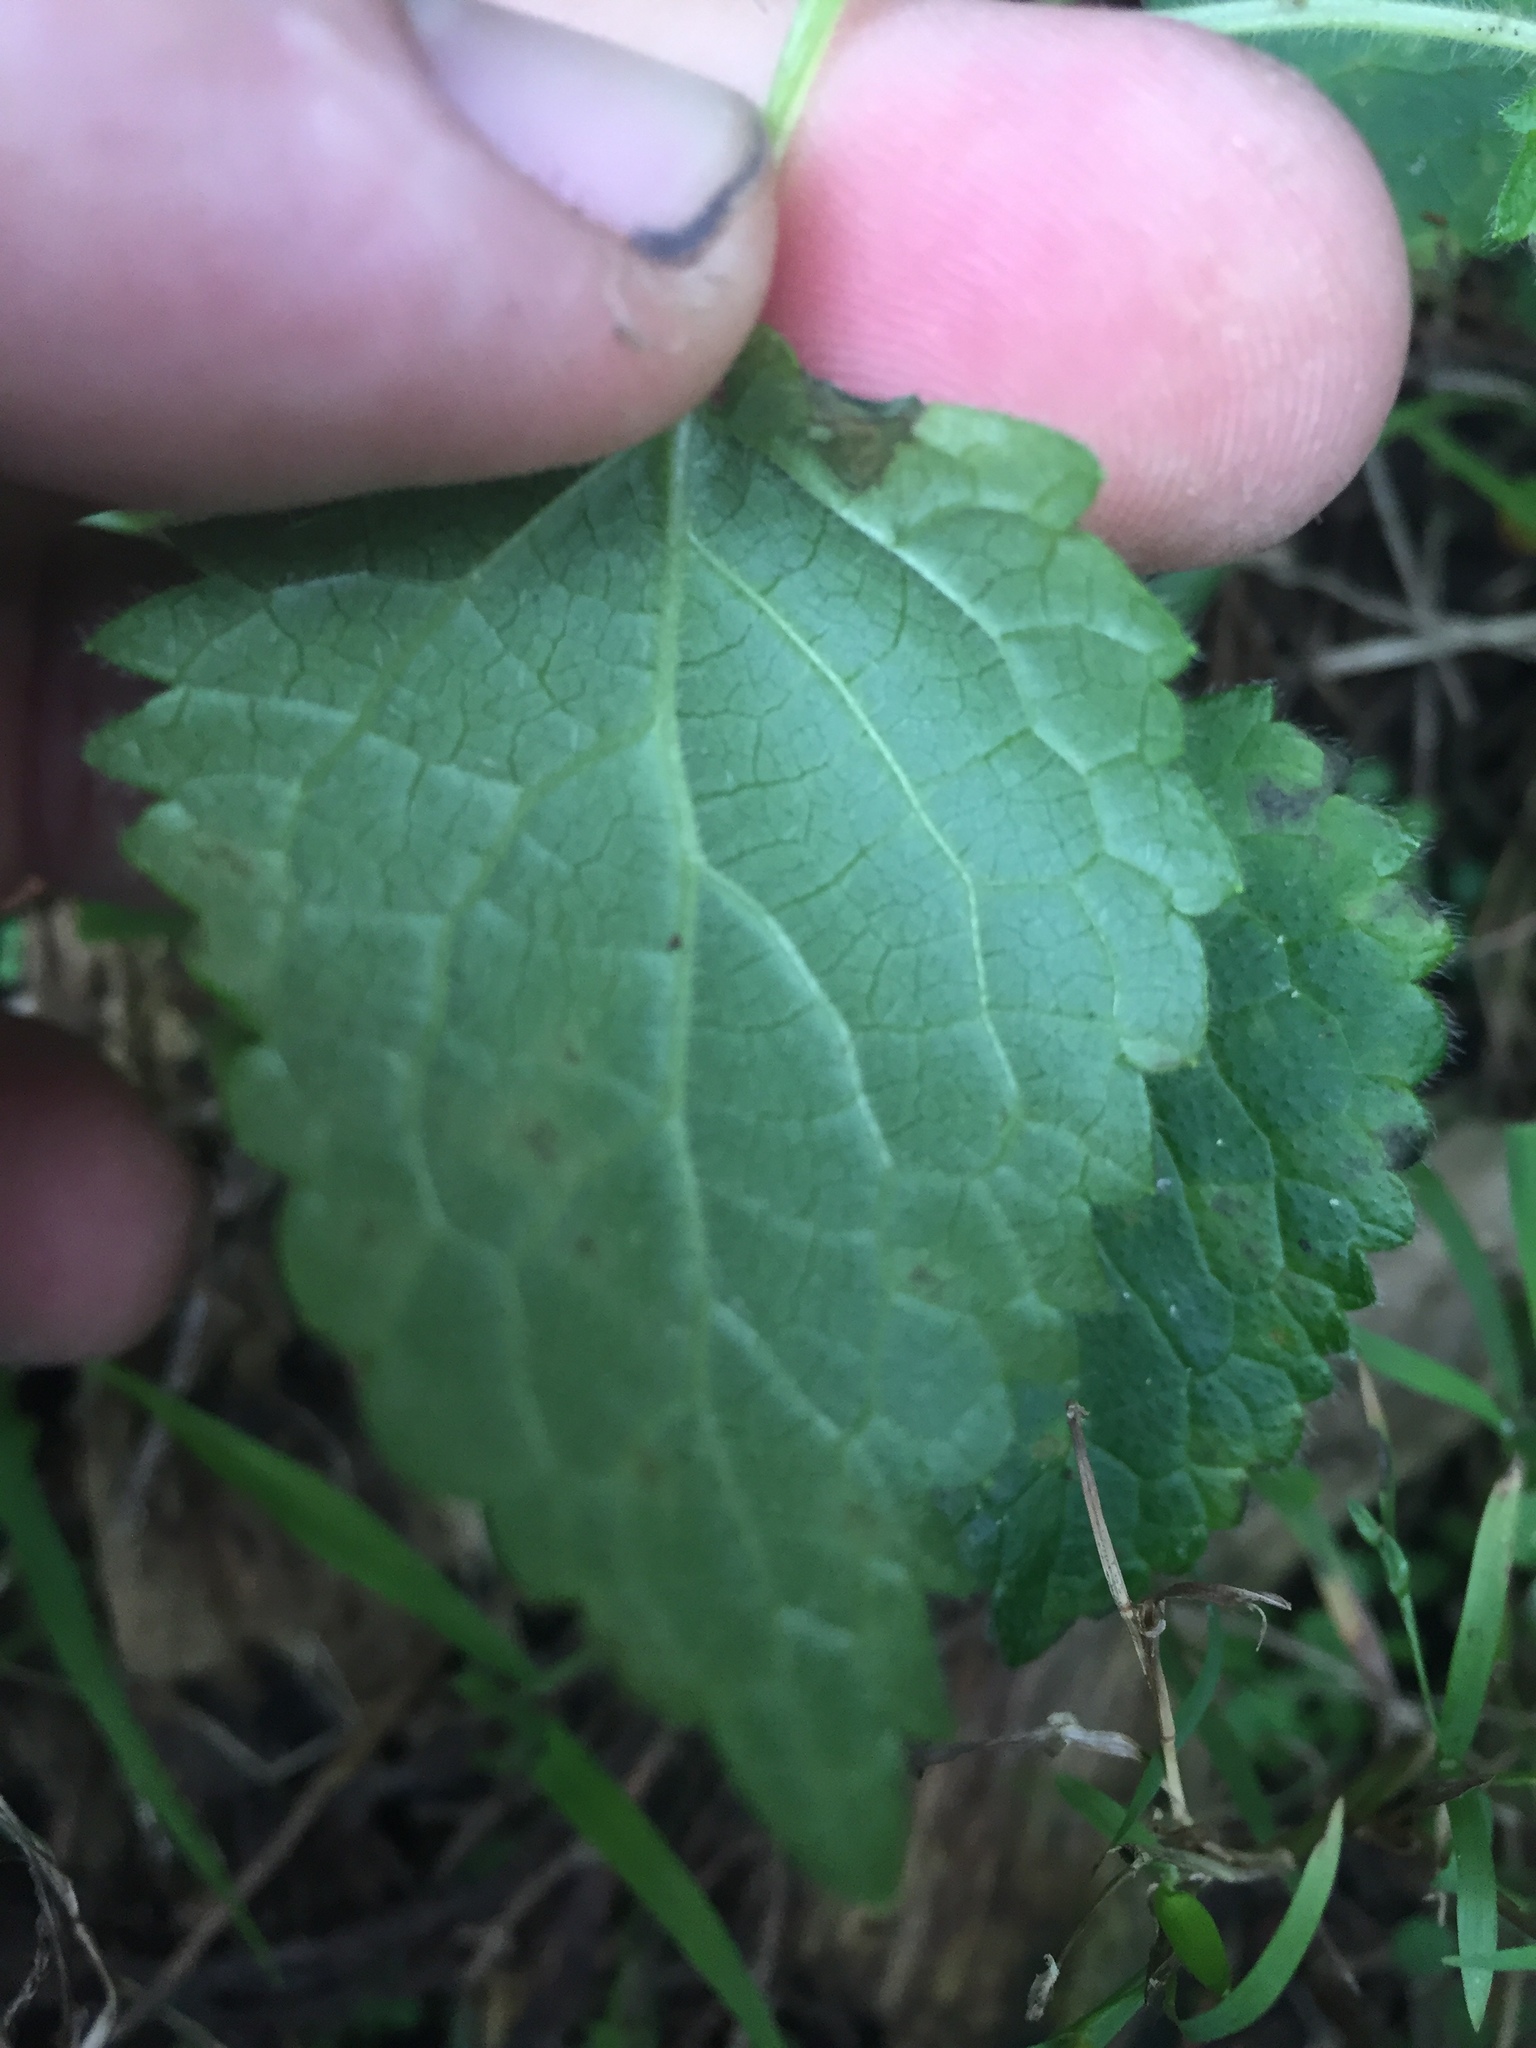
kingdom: Plantae
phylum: Tracheophyta
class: Magnoliopsida
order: Lamiales
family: Lamiaceae
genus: Stachys
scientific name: Stachys sylvatica
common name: Hedge woundwort
